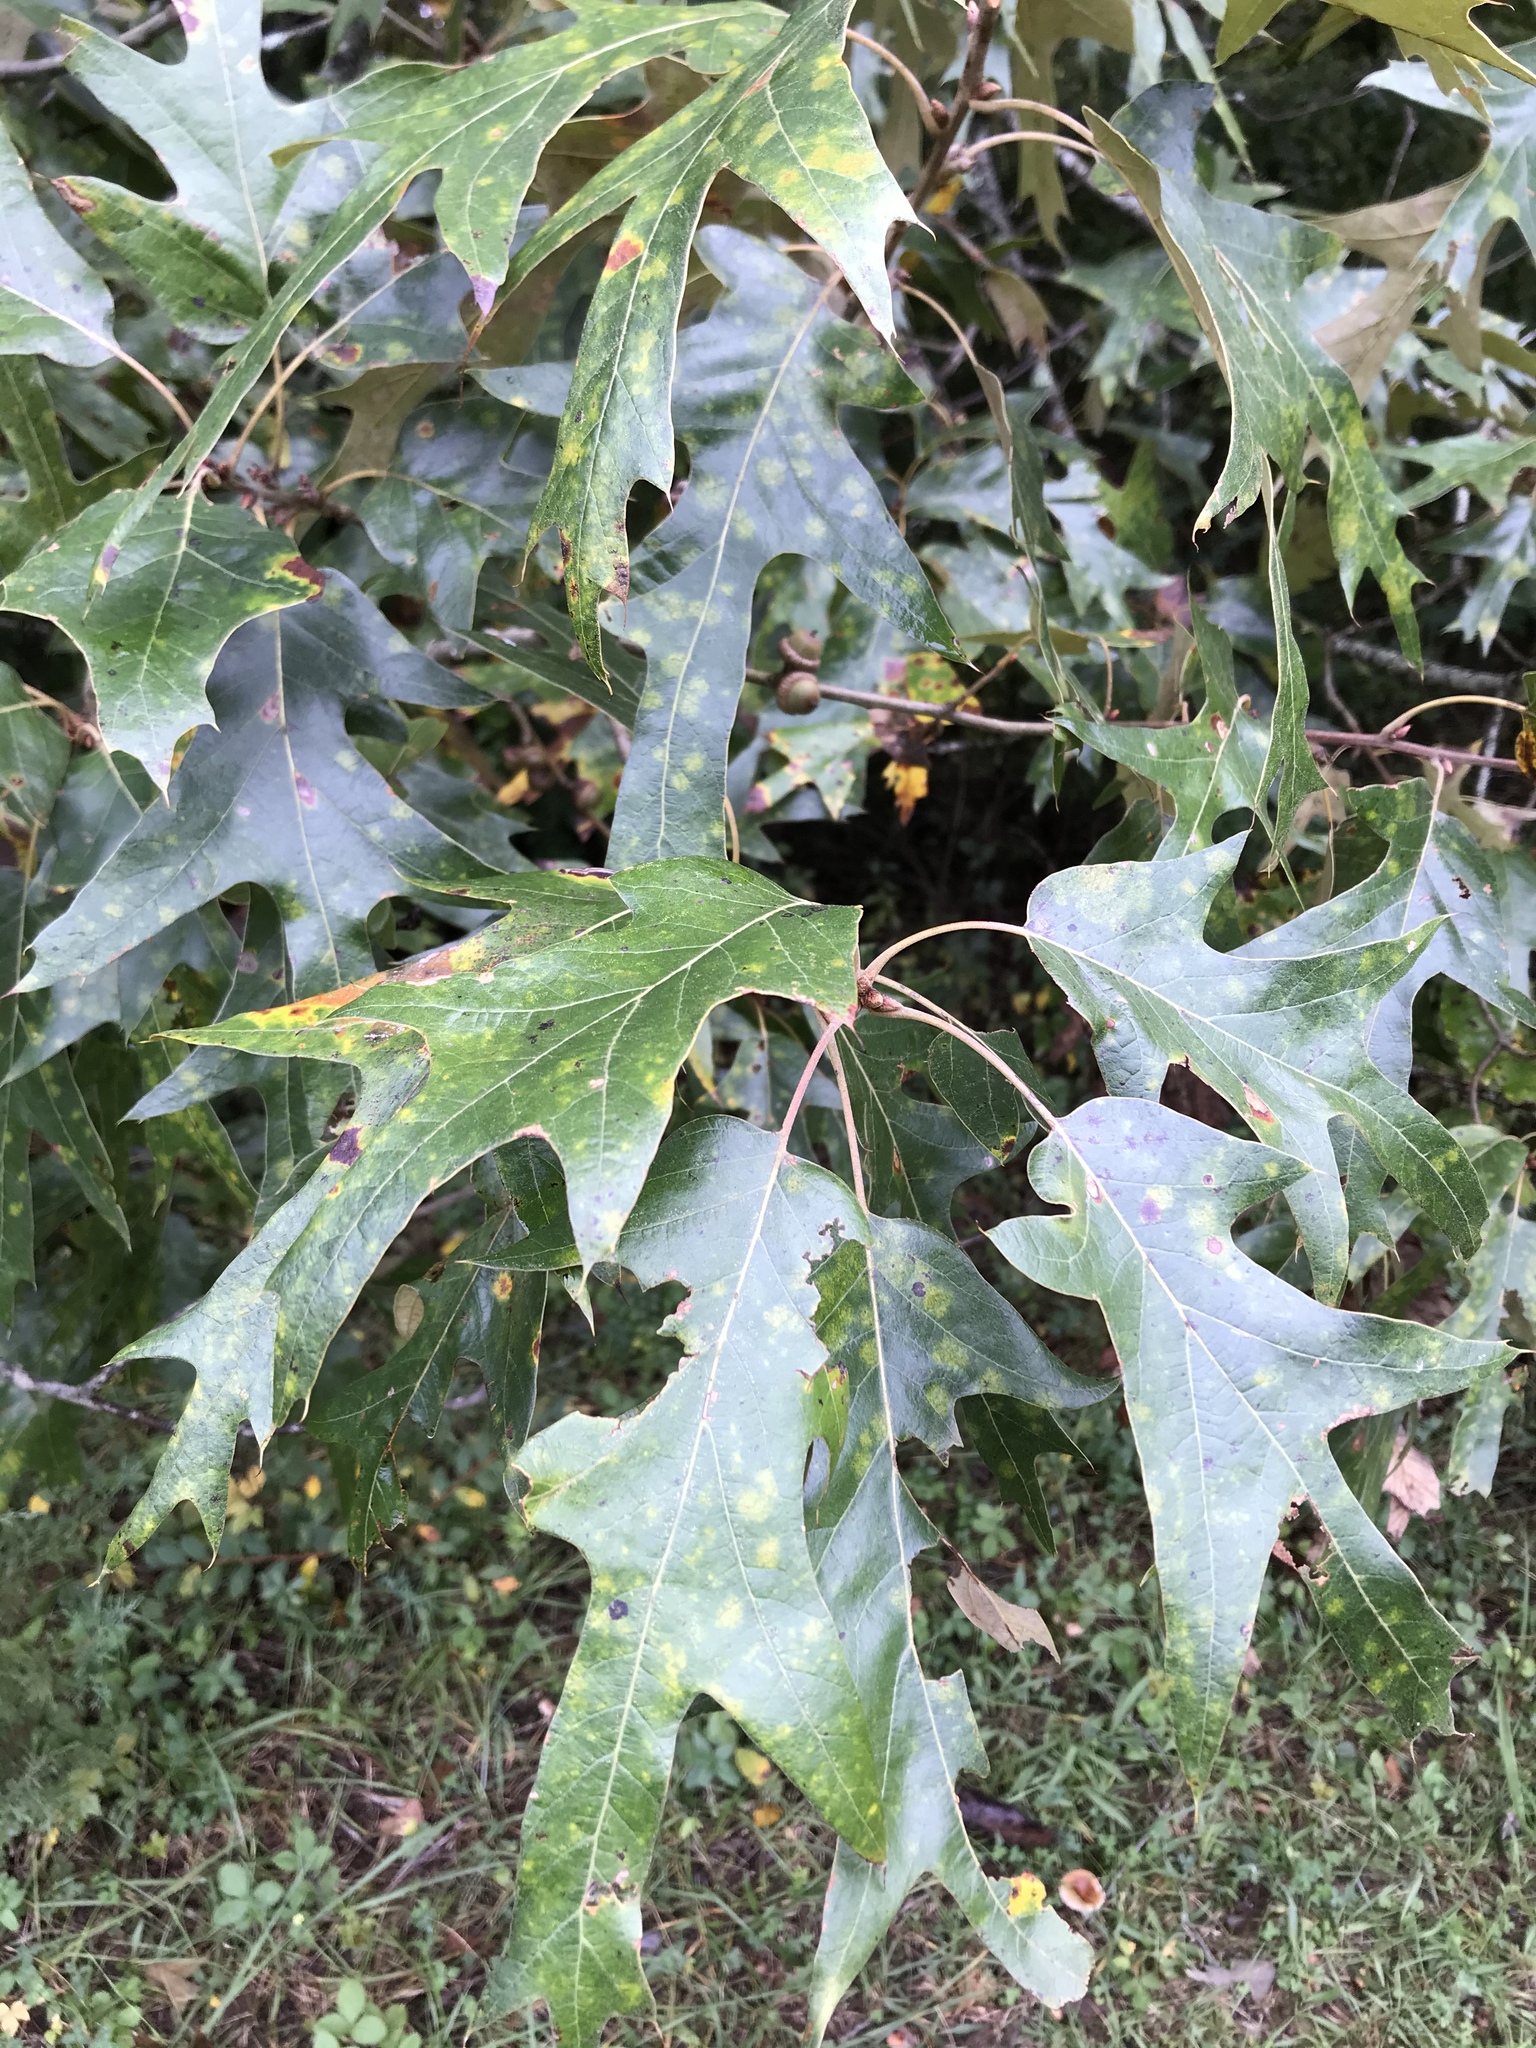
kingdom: Plantae
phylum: Tracheophyta
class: Magnoliopsida
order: Fagales
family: Fagaceae
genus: Quercus
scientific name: Quercus falcata
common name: Southern red oak
